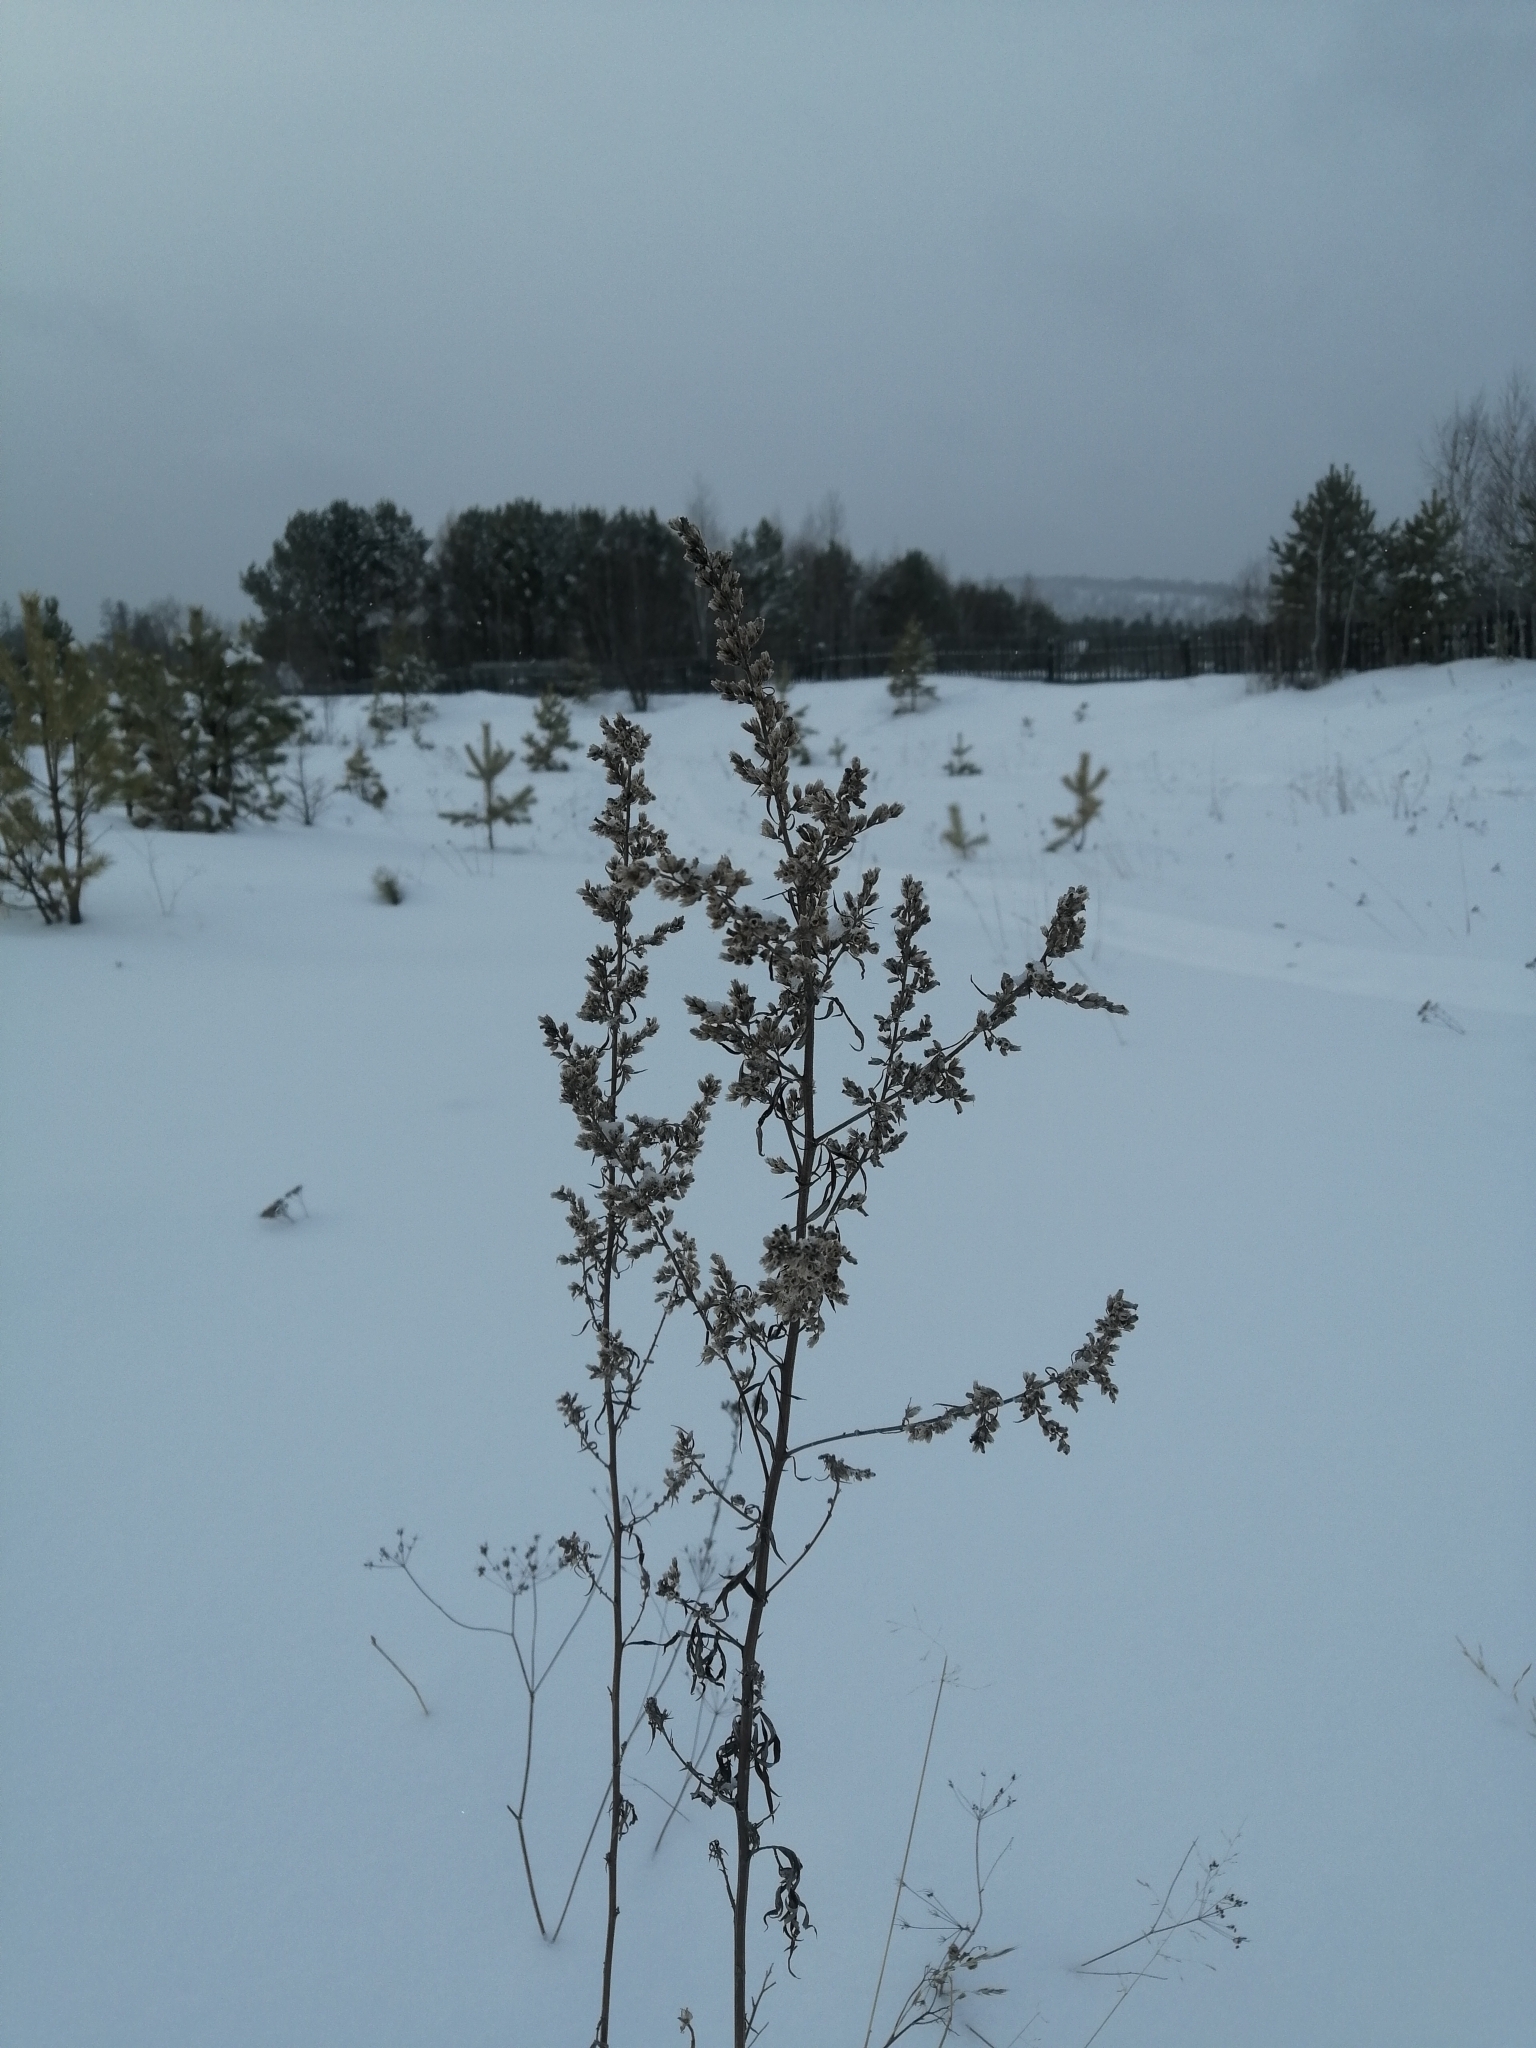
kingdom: Plantae
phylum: Tracheophyta
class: Magnoliopsida
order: Asterales
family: Asteraceae
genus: Artemisia
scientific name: Artemisia vulgaris
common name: Mugwort
